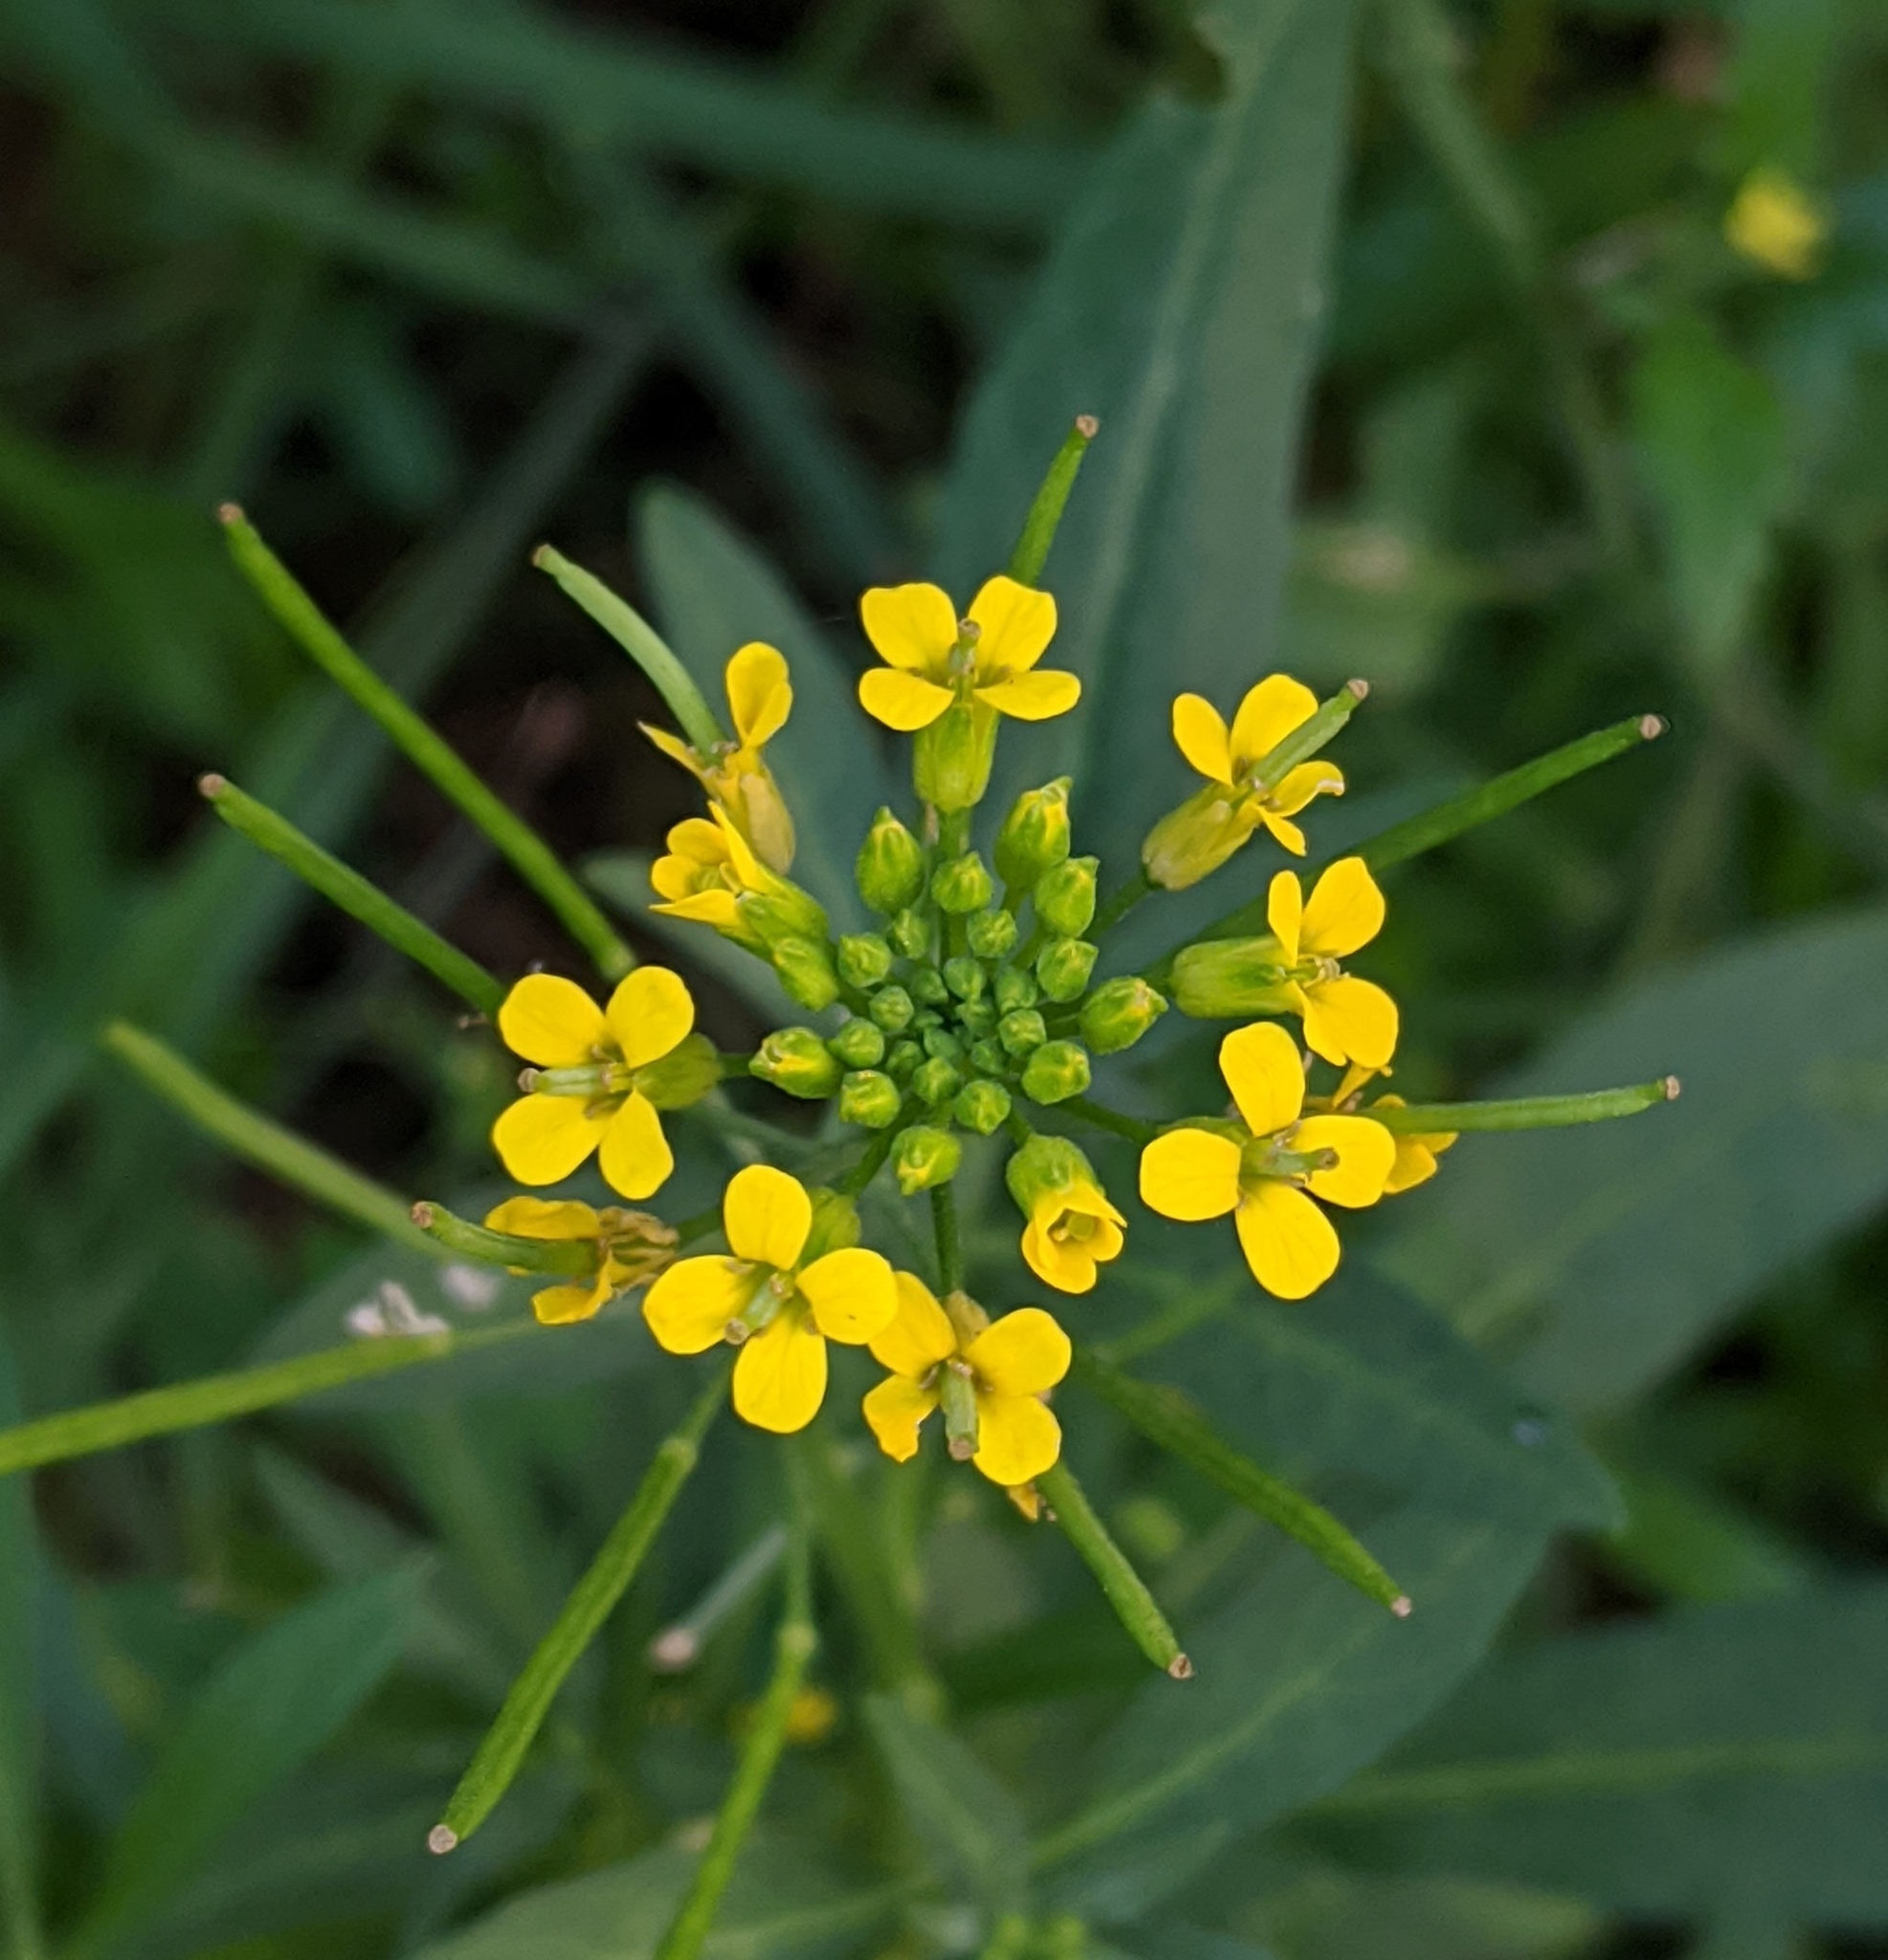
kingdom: Plantae
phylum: Tracheophyta
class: Magnoliopsida
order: Brassicales
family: Brassicaceae
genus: Erysimum
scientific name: Erysimum cheiranthoides
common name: Treacle mustard
